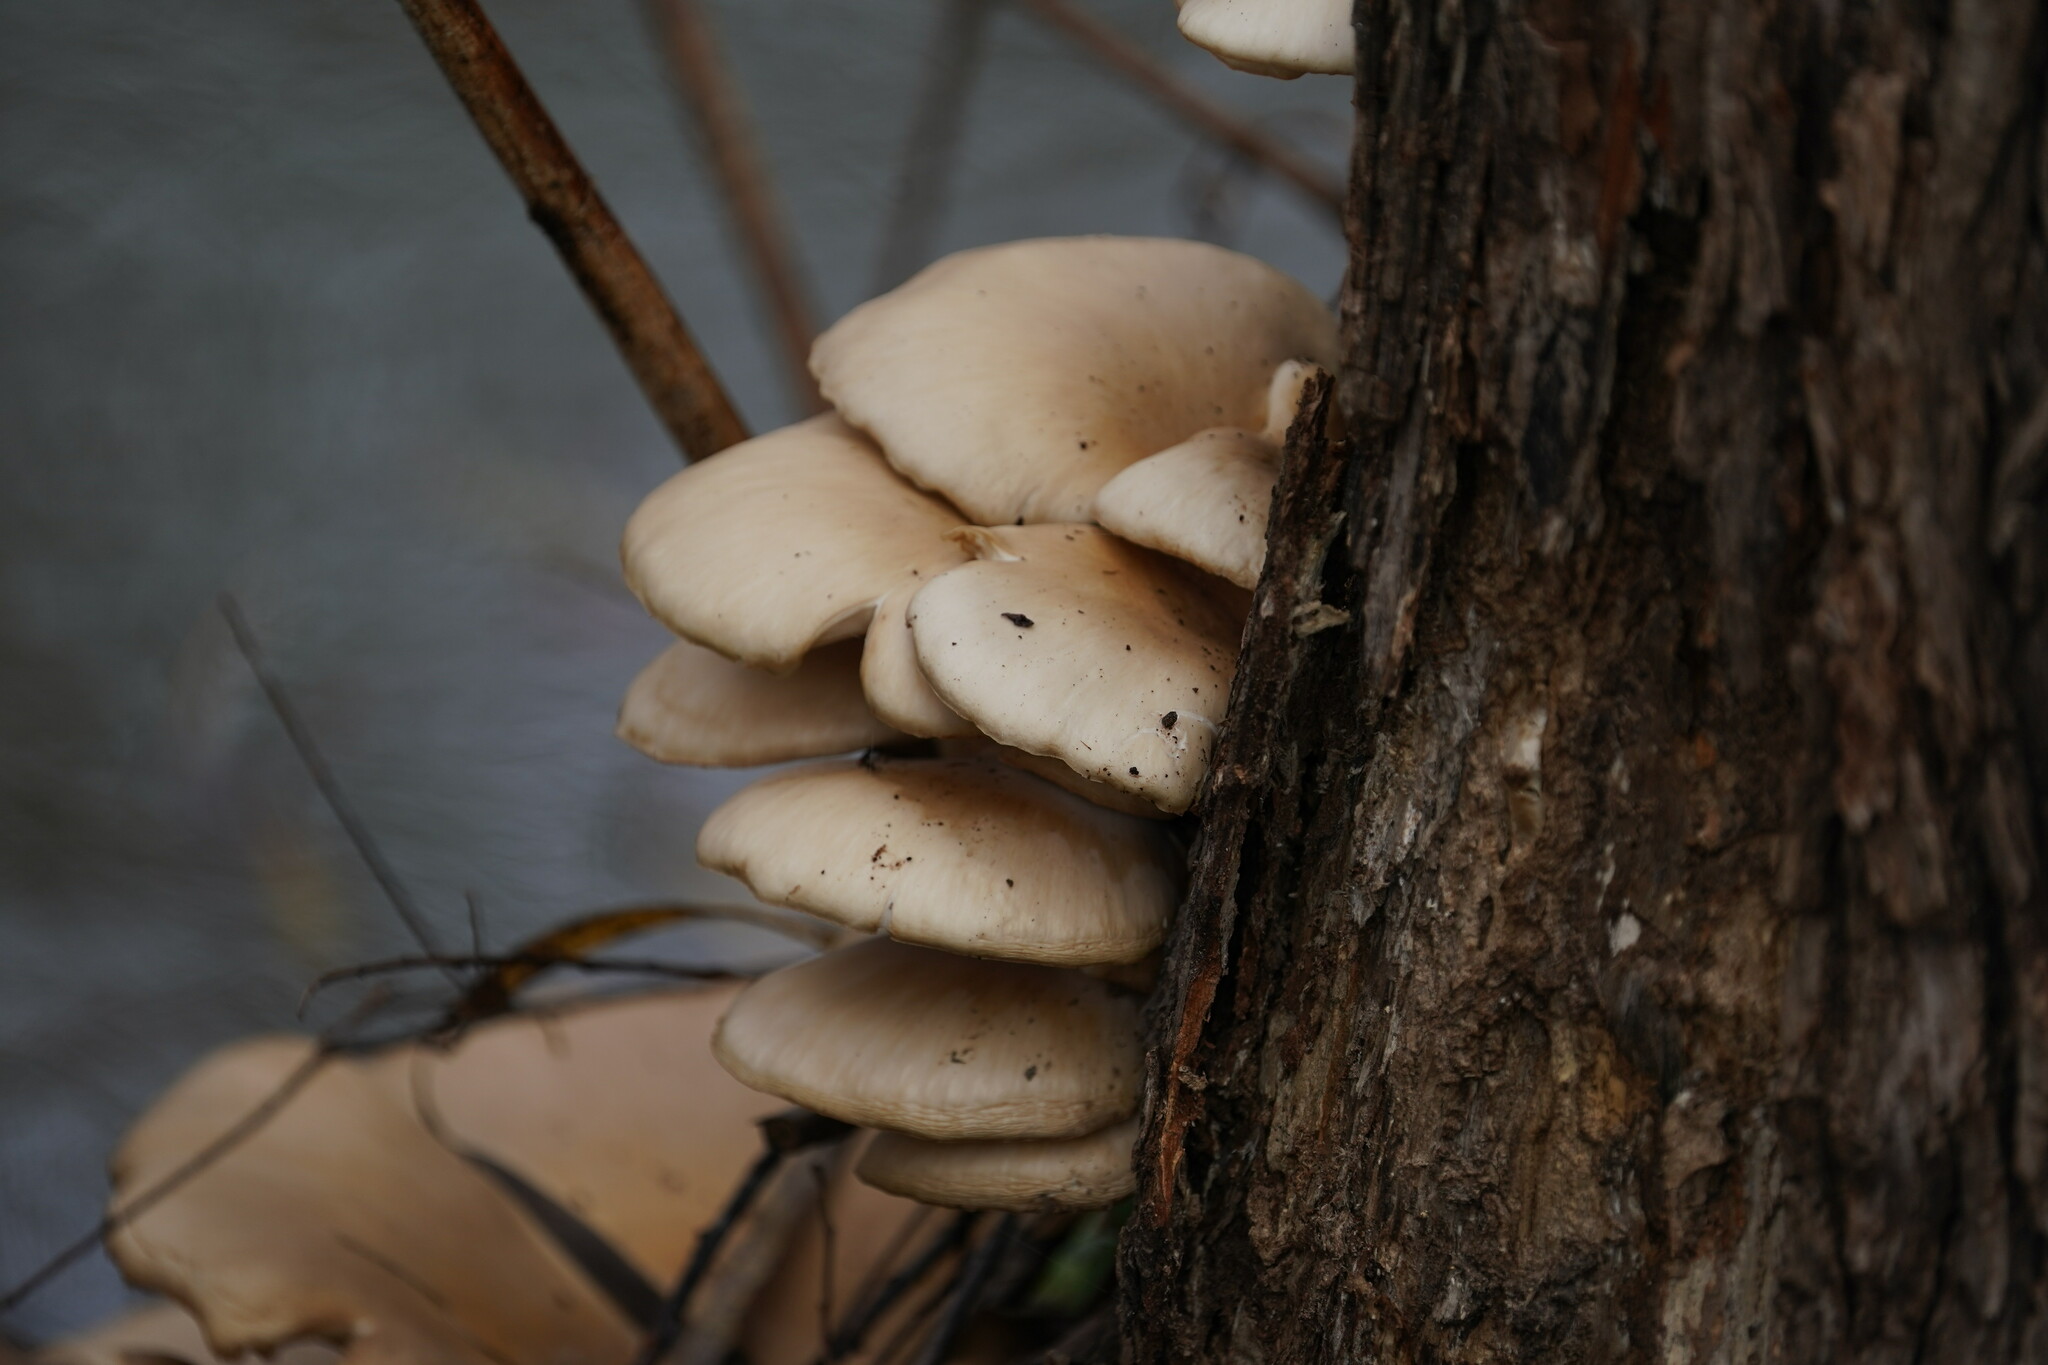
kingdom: Fungi
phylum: Basidiomycota
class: Agaricomycetes
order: Agaricales
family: Pleurotaceae
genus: Pleurotus
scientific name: Pleurotus ostreatus
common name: Oyster mushroom
